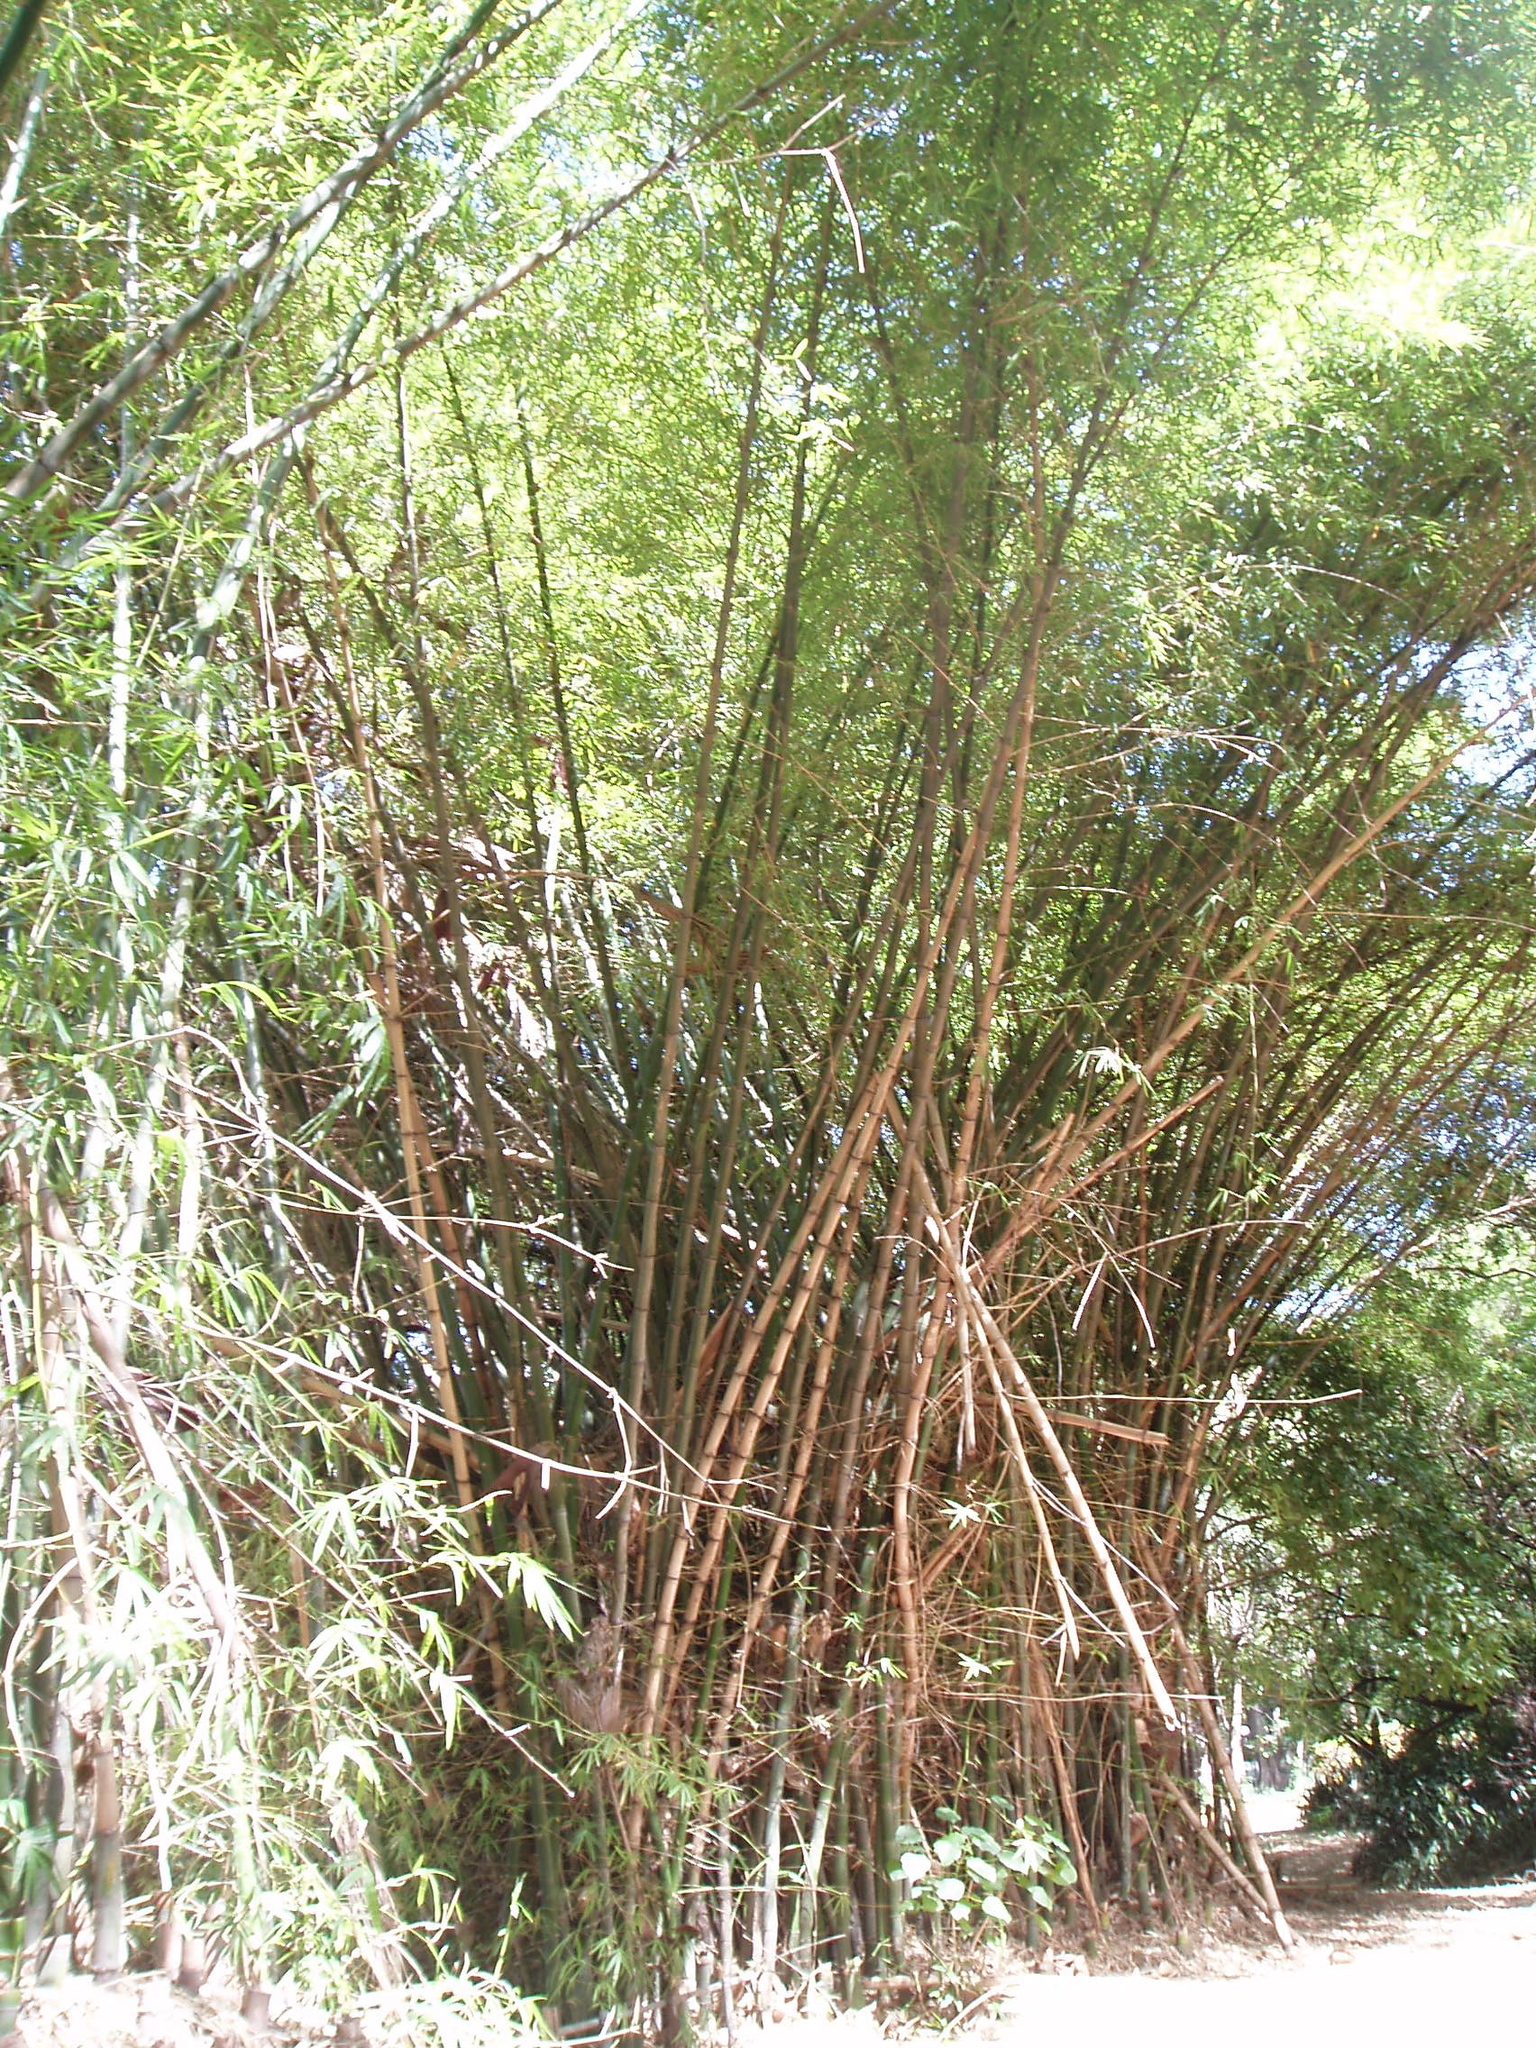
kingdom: Plantae
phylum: Tracheophyta
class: Liliopsida
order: Poales
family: Poaceae
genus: Bambusa
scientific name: Bambusa vulgaris
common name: Common bamboo
